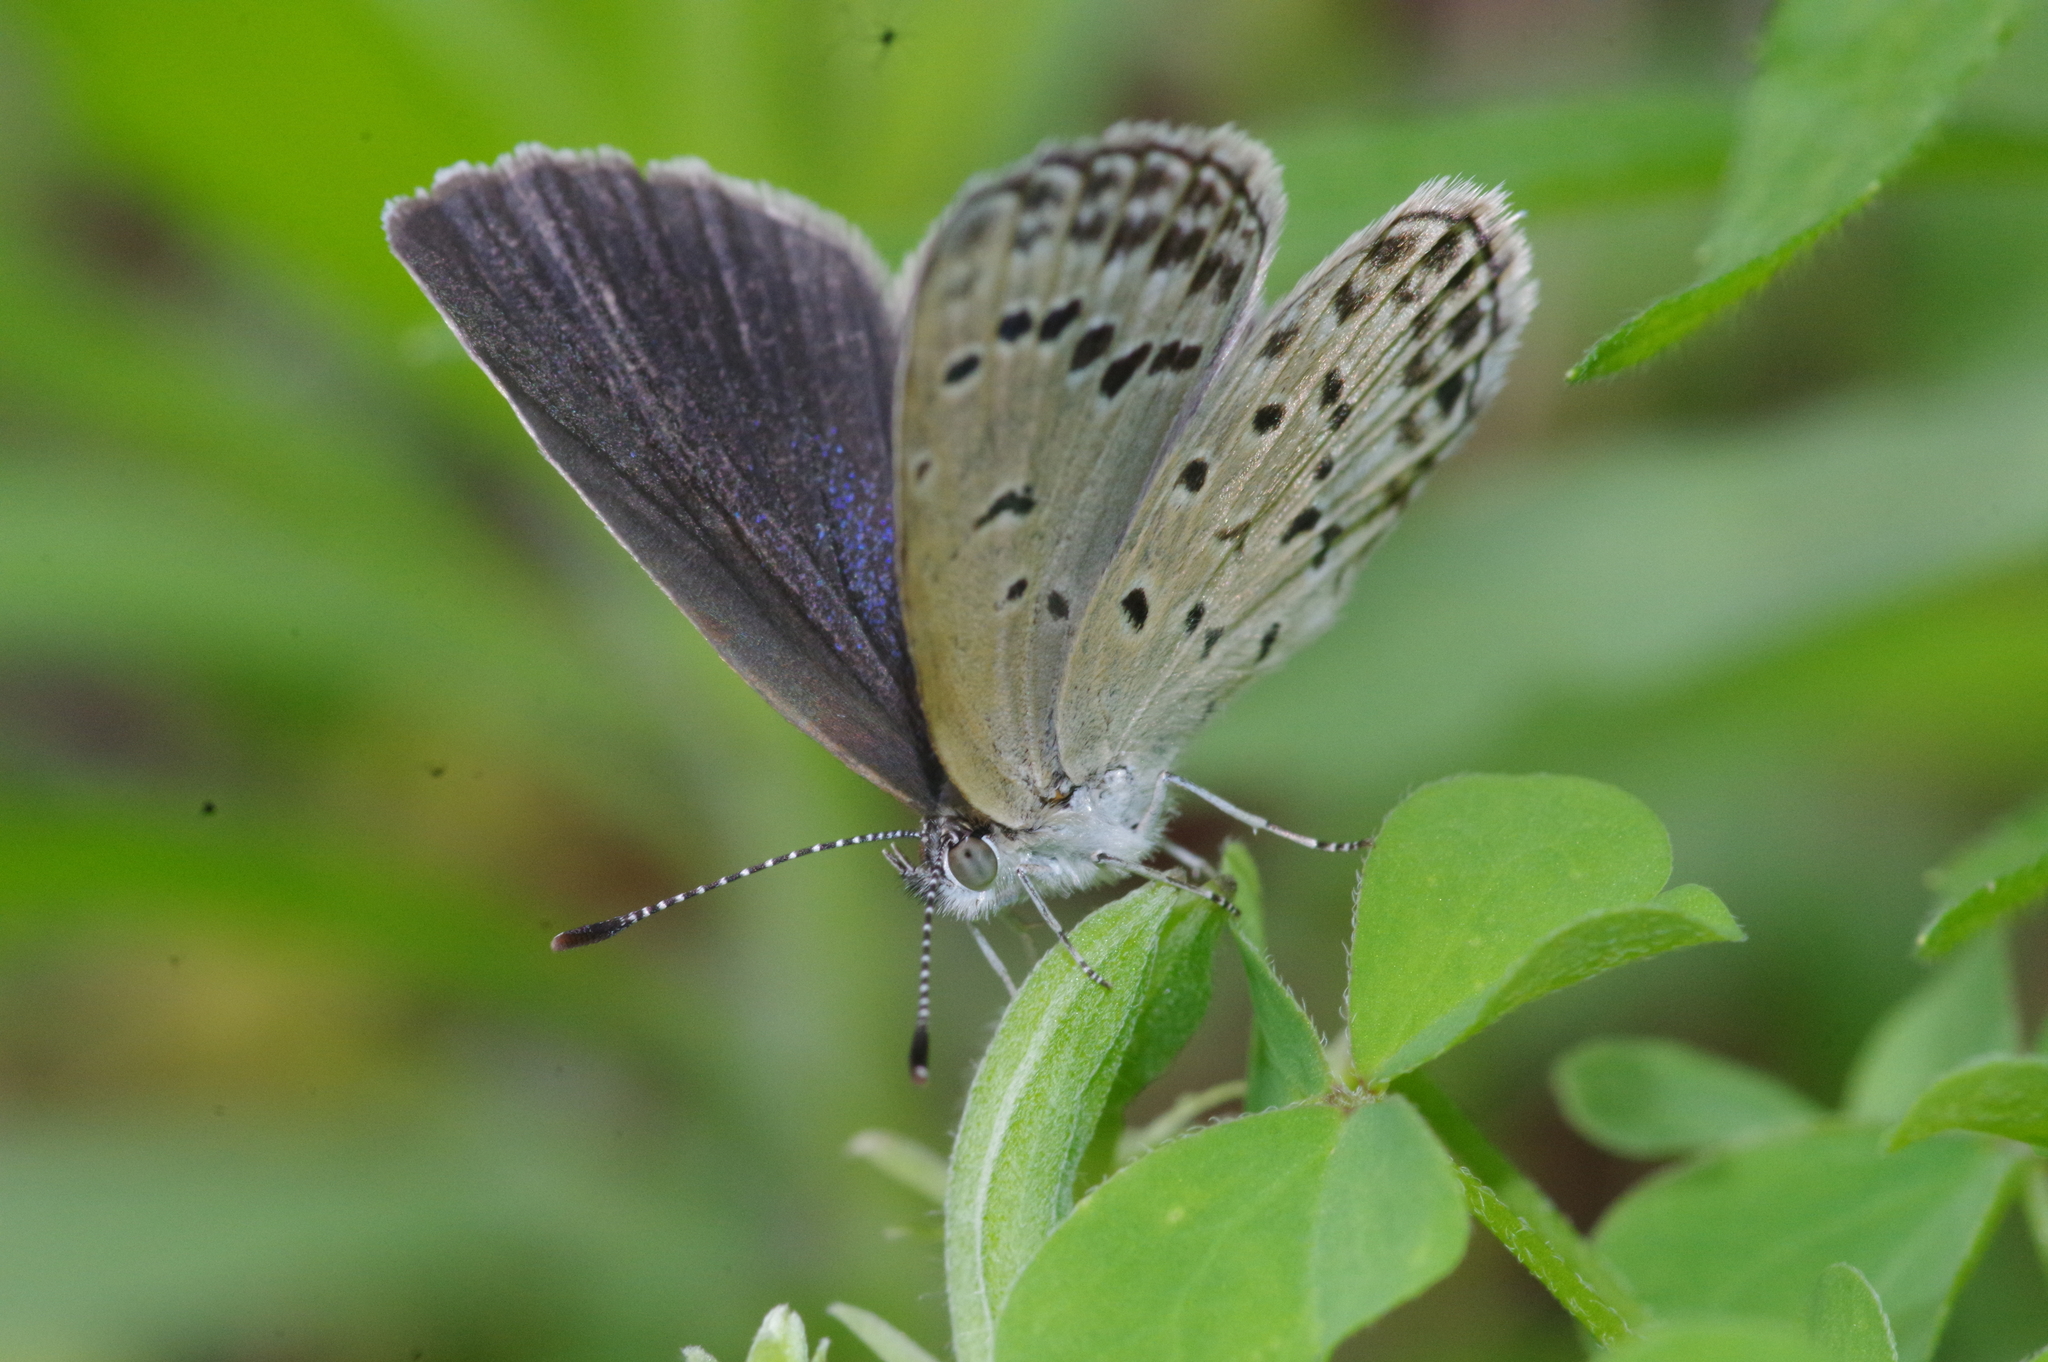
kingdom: Animalia
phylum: Arthropoda
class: Insecta
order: Lepidoptera
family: Lycaenidae
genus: Pseudozizeeria
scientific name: Pseudozizeeria maha
